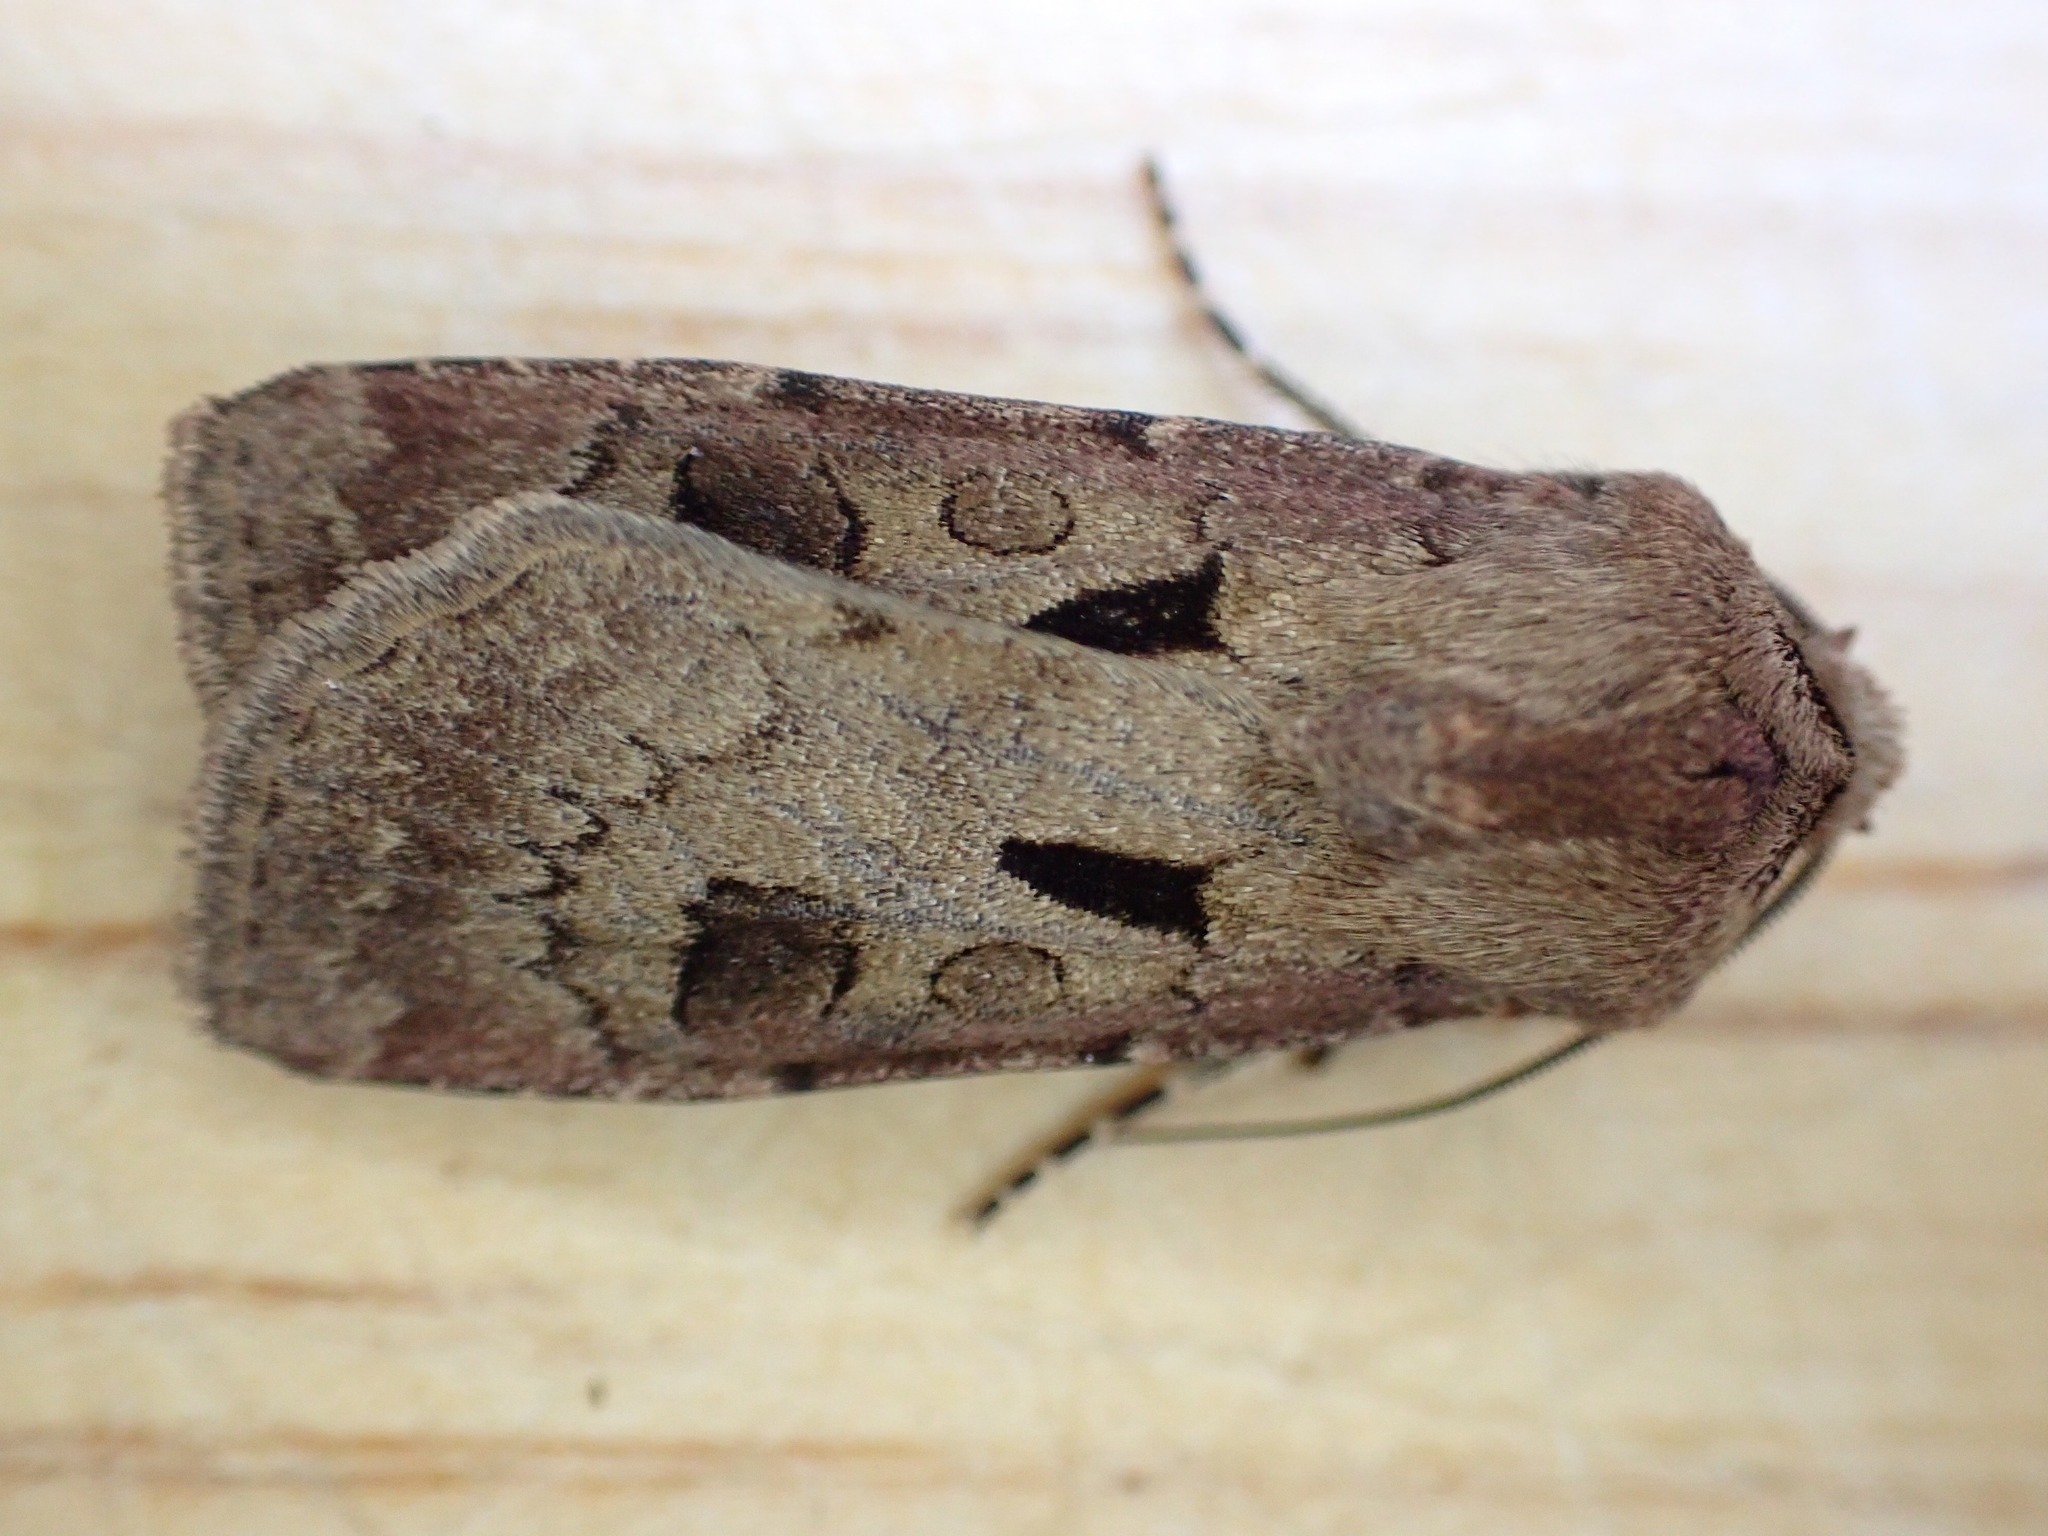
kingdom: Animalia
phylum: Arthropoda
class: Insecta
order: Lepidoptera
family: Noctuidae
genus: Agrotis
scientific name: Agrotis exclamationis
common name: Heart and dart
